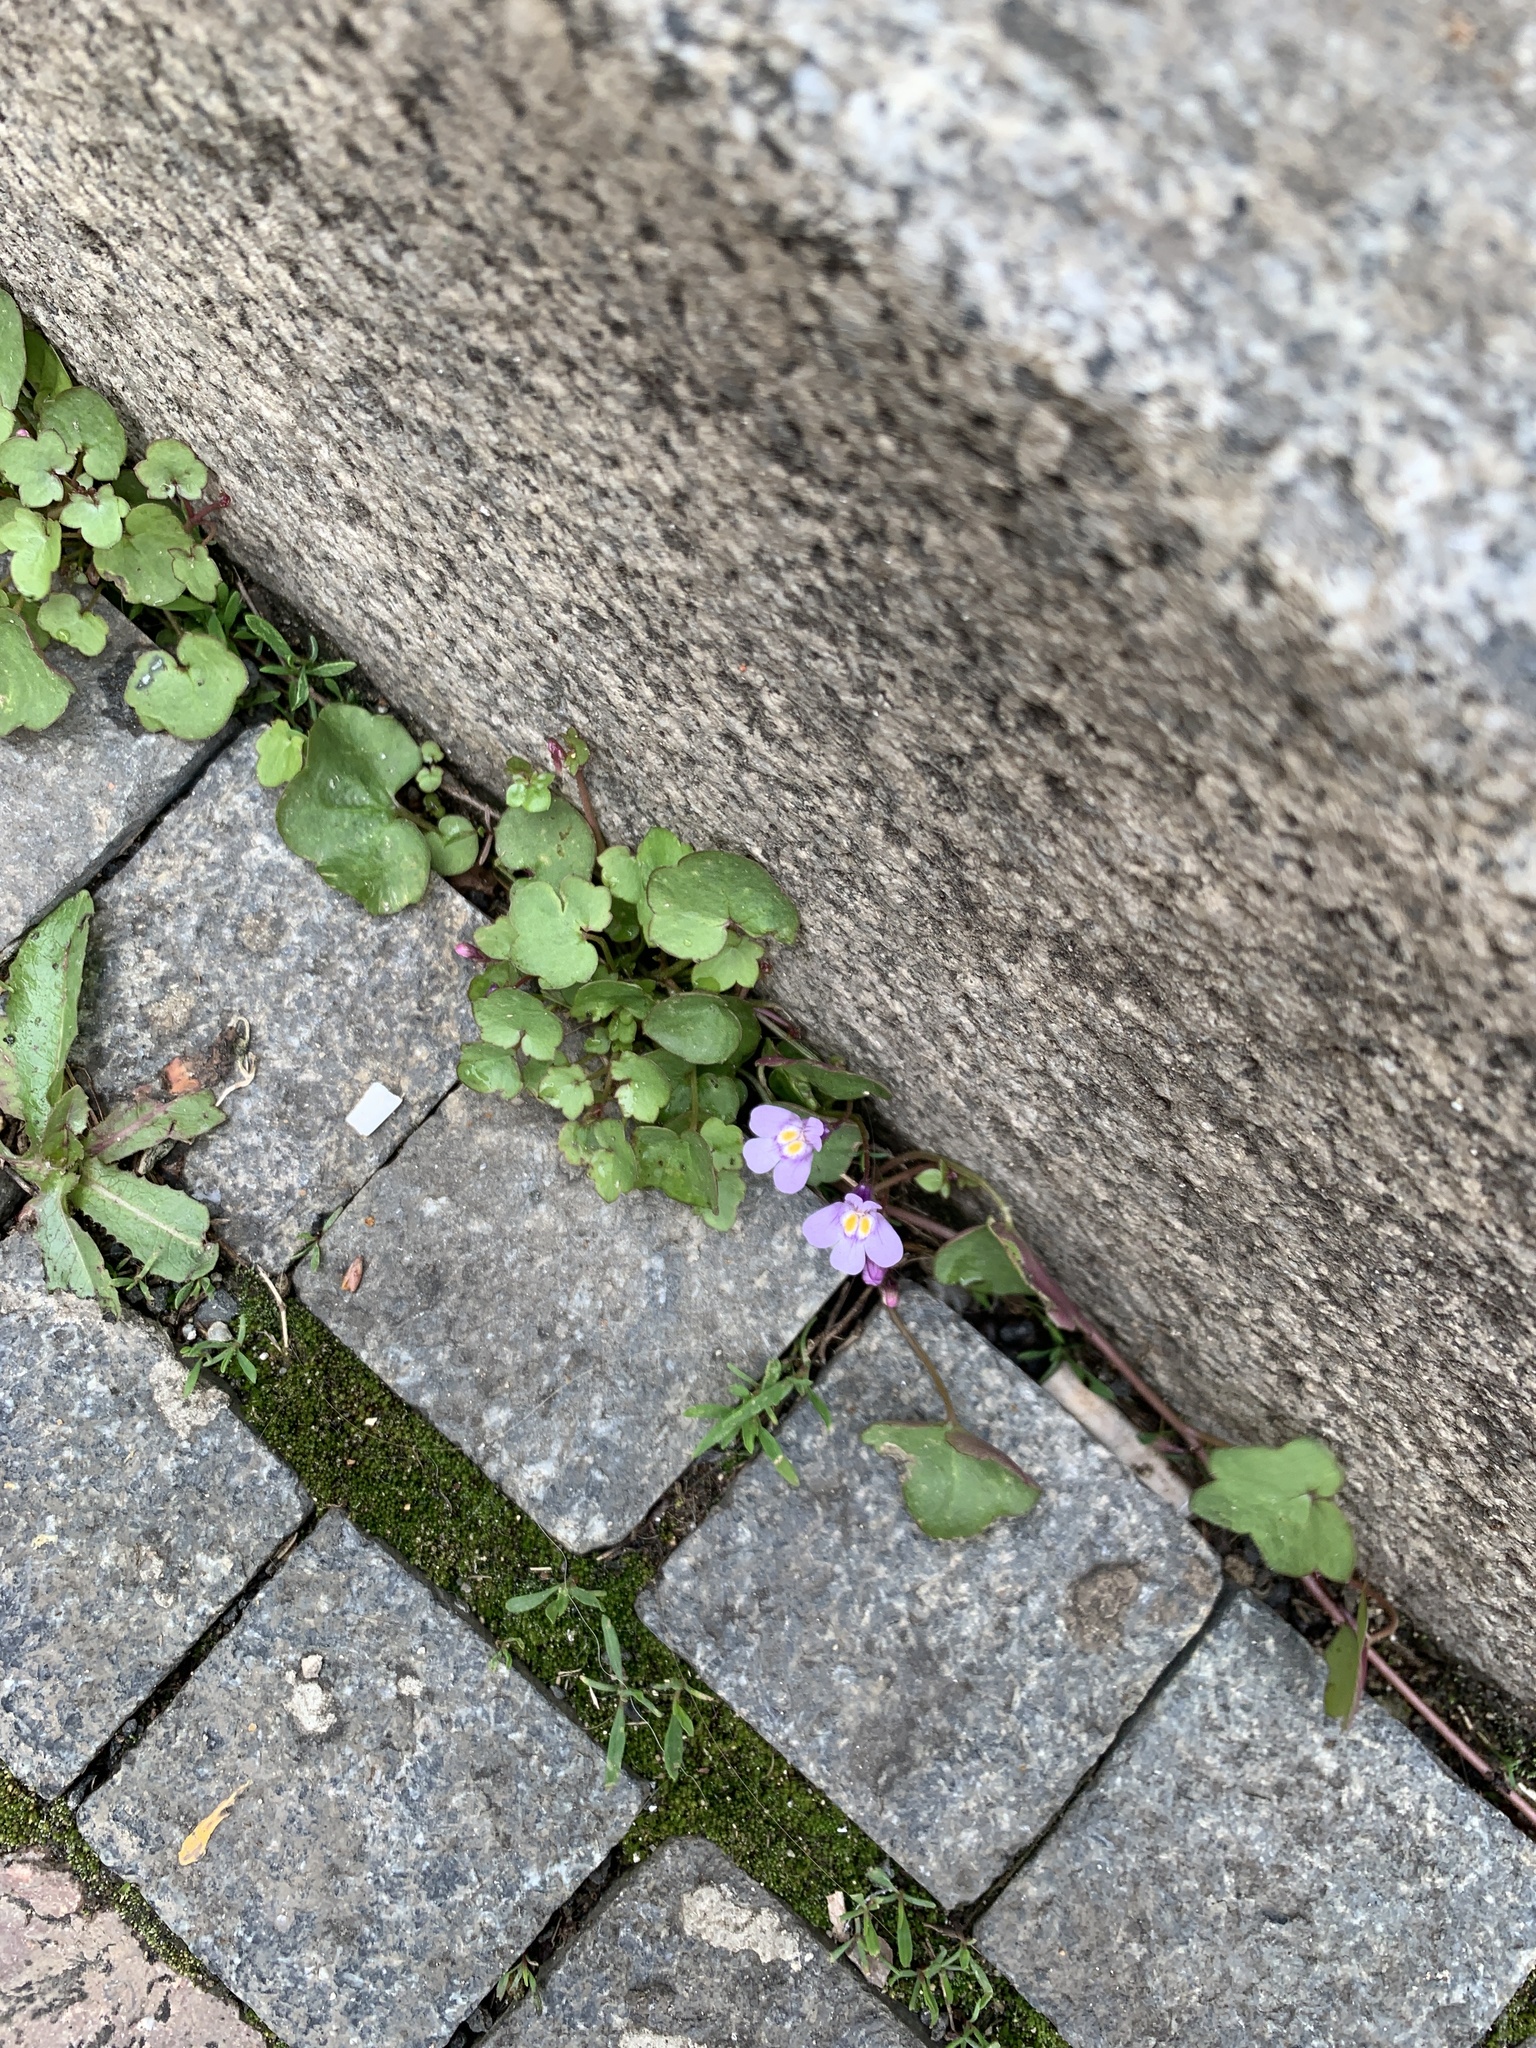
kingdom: Plantae
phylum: Tracheophyta
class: Magnoliopsida
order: Lamiales
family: Plantaginaceae
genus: Cymbalaria
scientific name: Cymbalaria muralis
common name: Ivy-leaved toadflax
